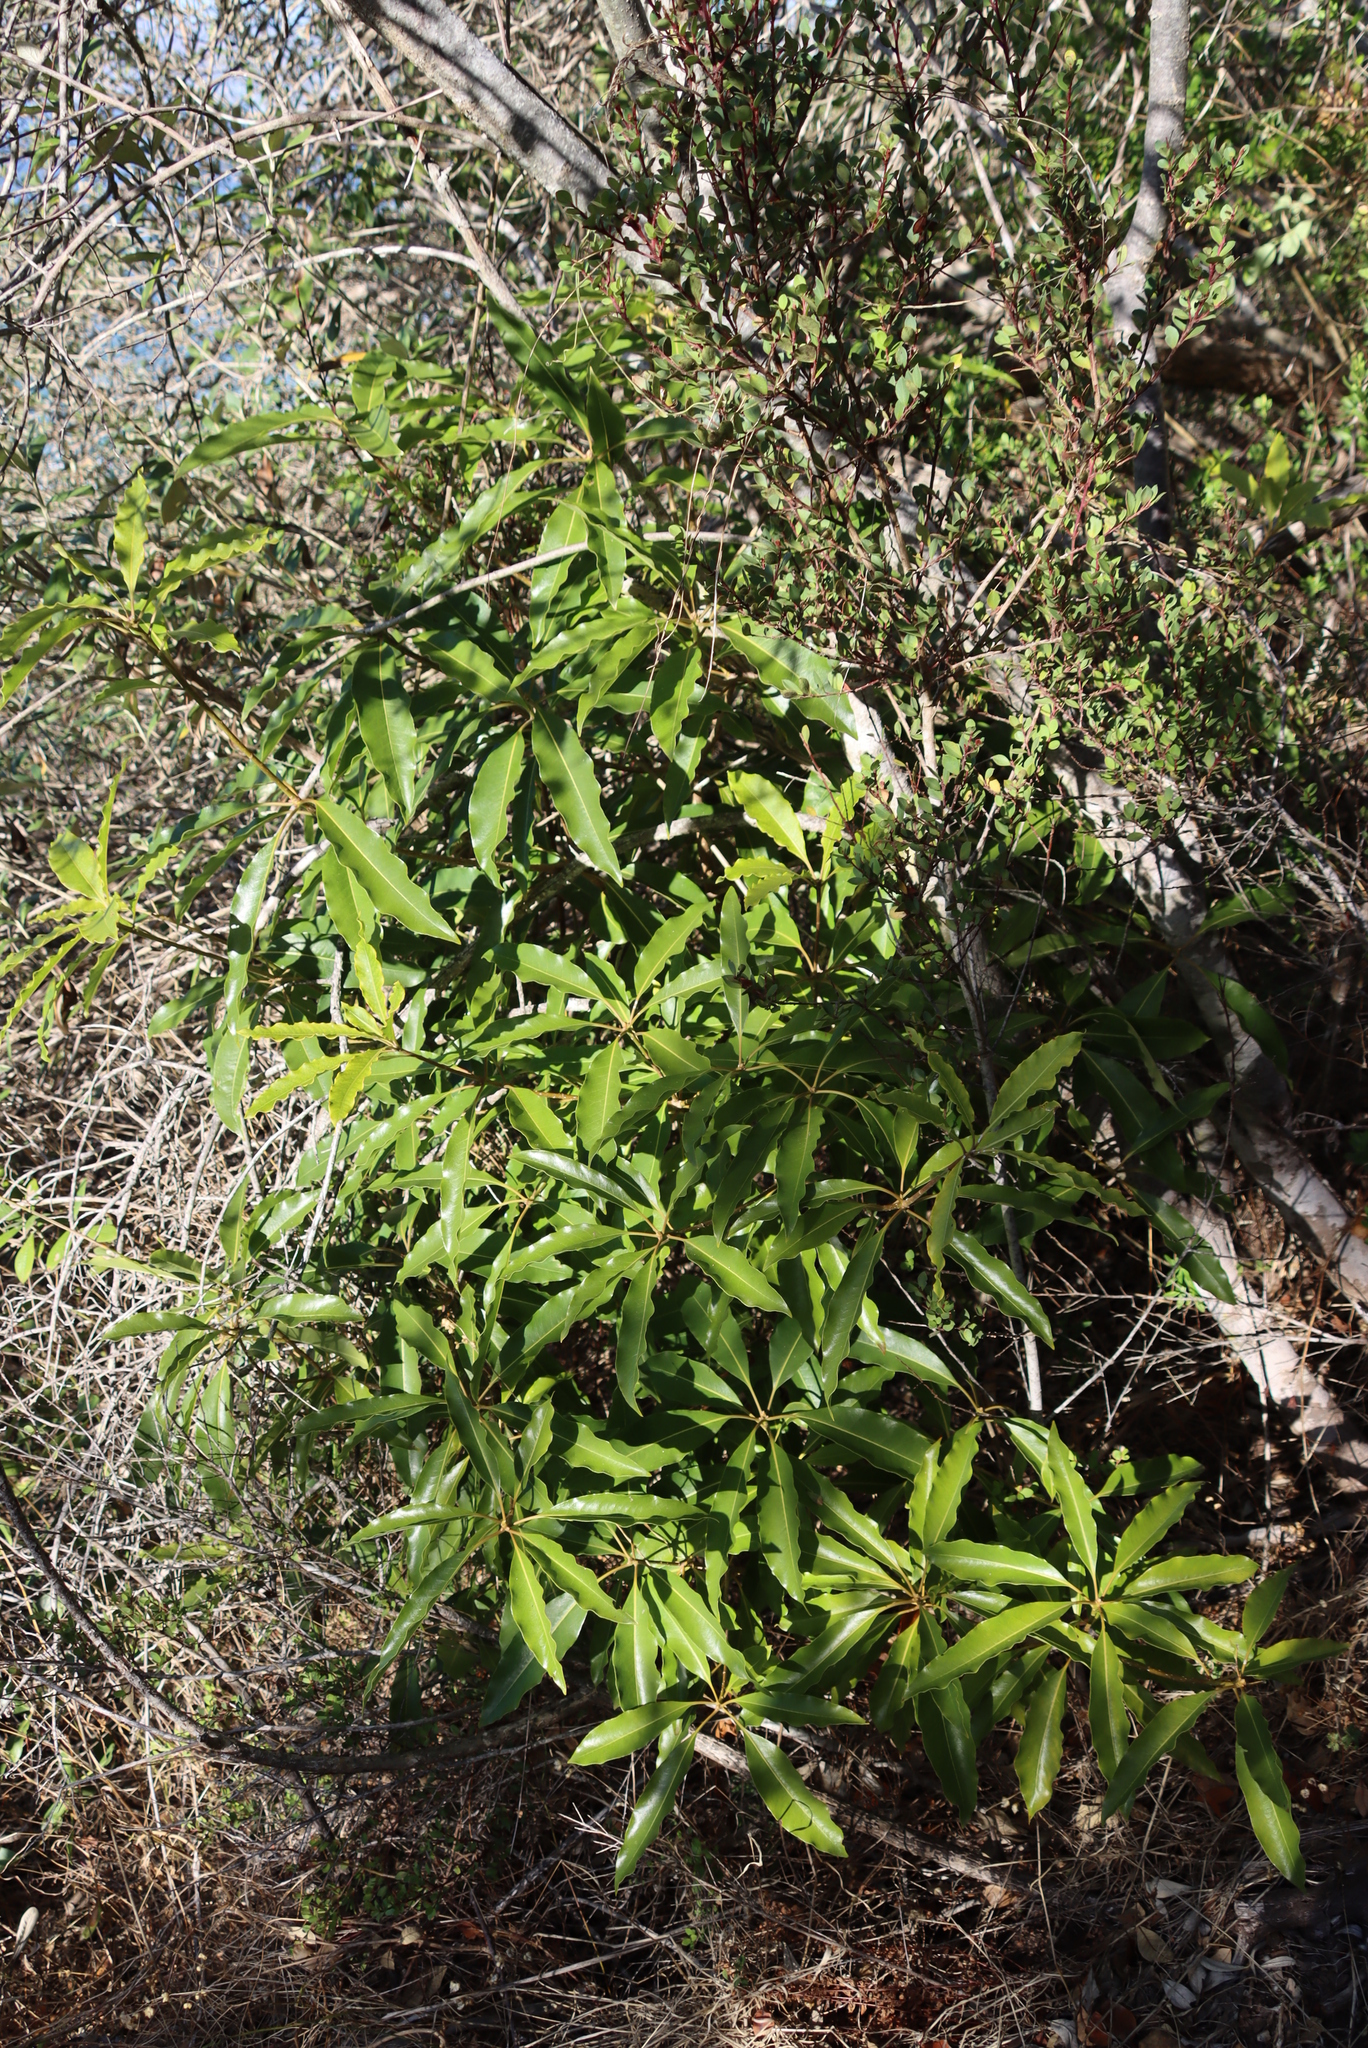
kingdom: Plantae
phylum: Tracheophyta
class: Magnoliopsida
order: Apiales
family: Pittosporaceae
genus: Pittosporum
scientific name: Pittosporum undulatum
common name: Australian cheesewood
